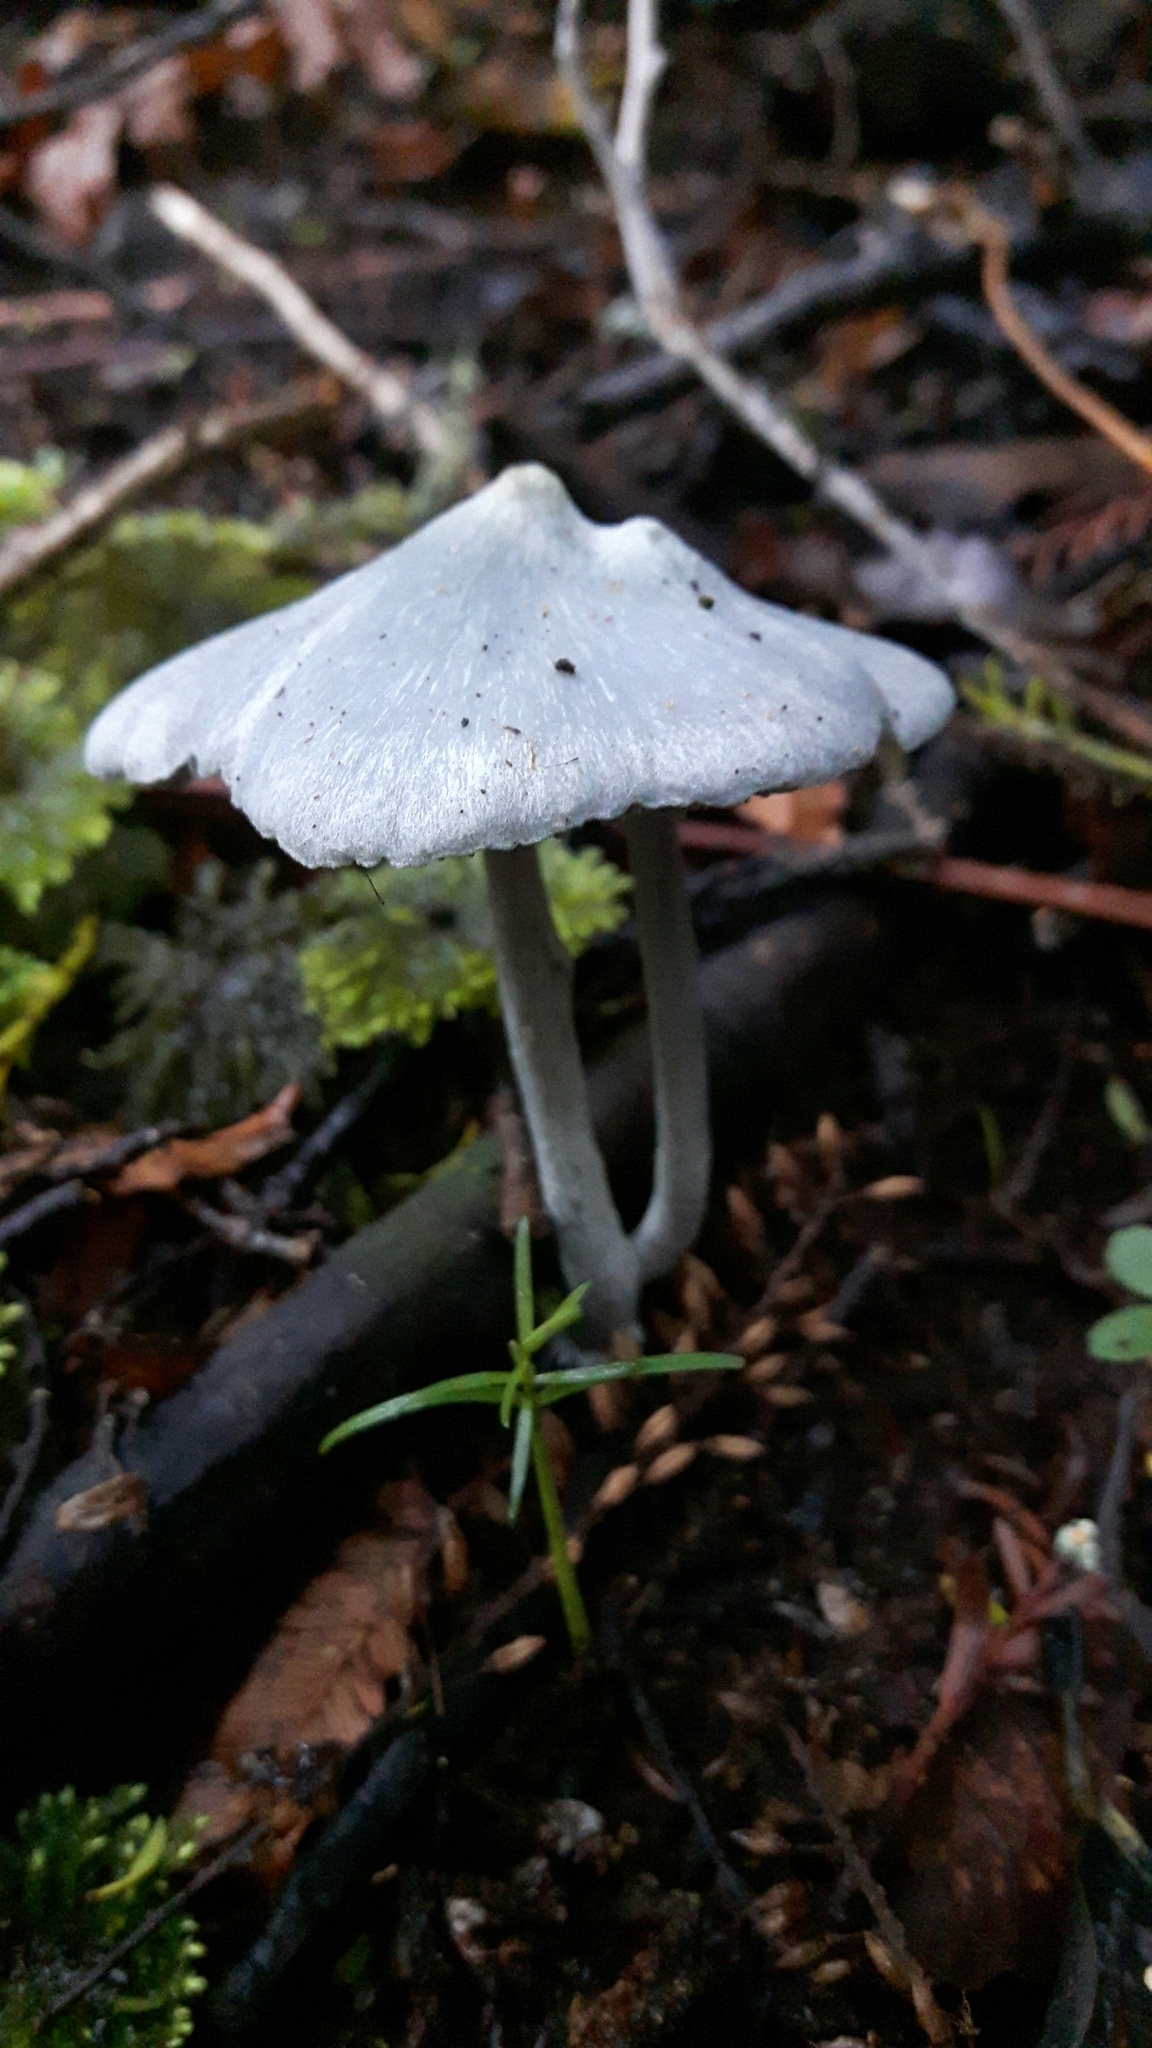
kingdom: Fungi
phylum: Basidiomycota
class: Agaricomycetes
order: Agaricales
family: Entolomataceae
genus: Entoloma
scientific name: Entoloma hochstetteri
